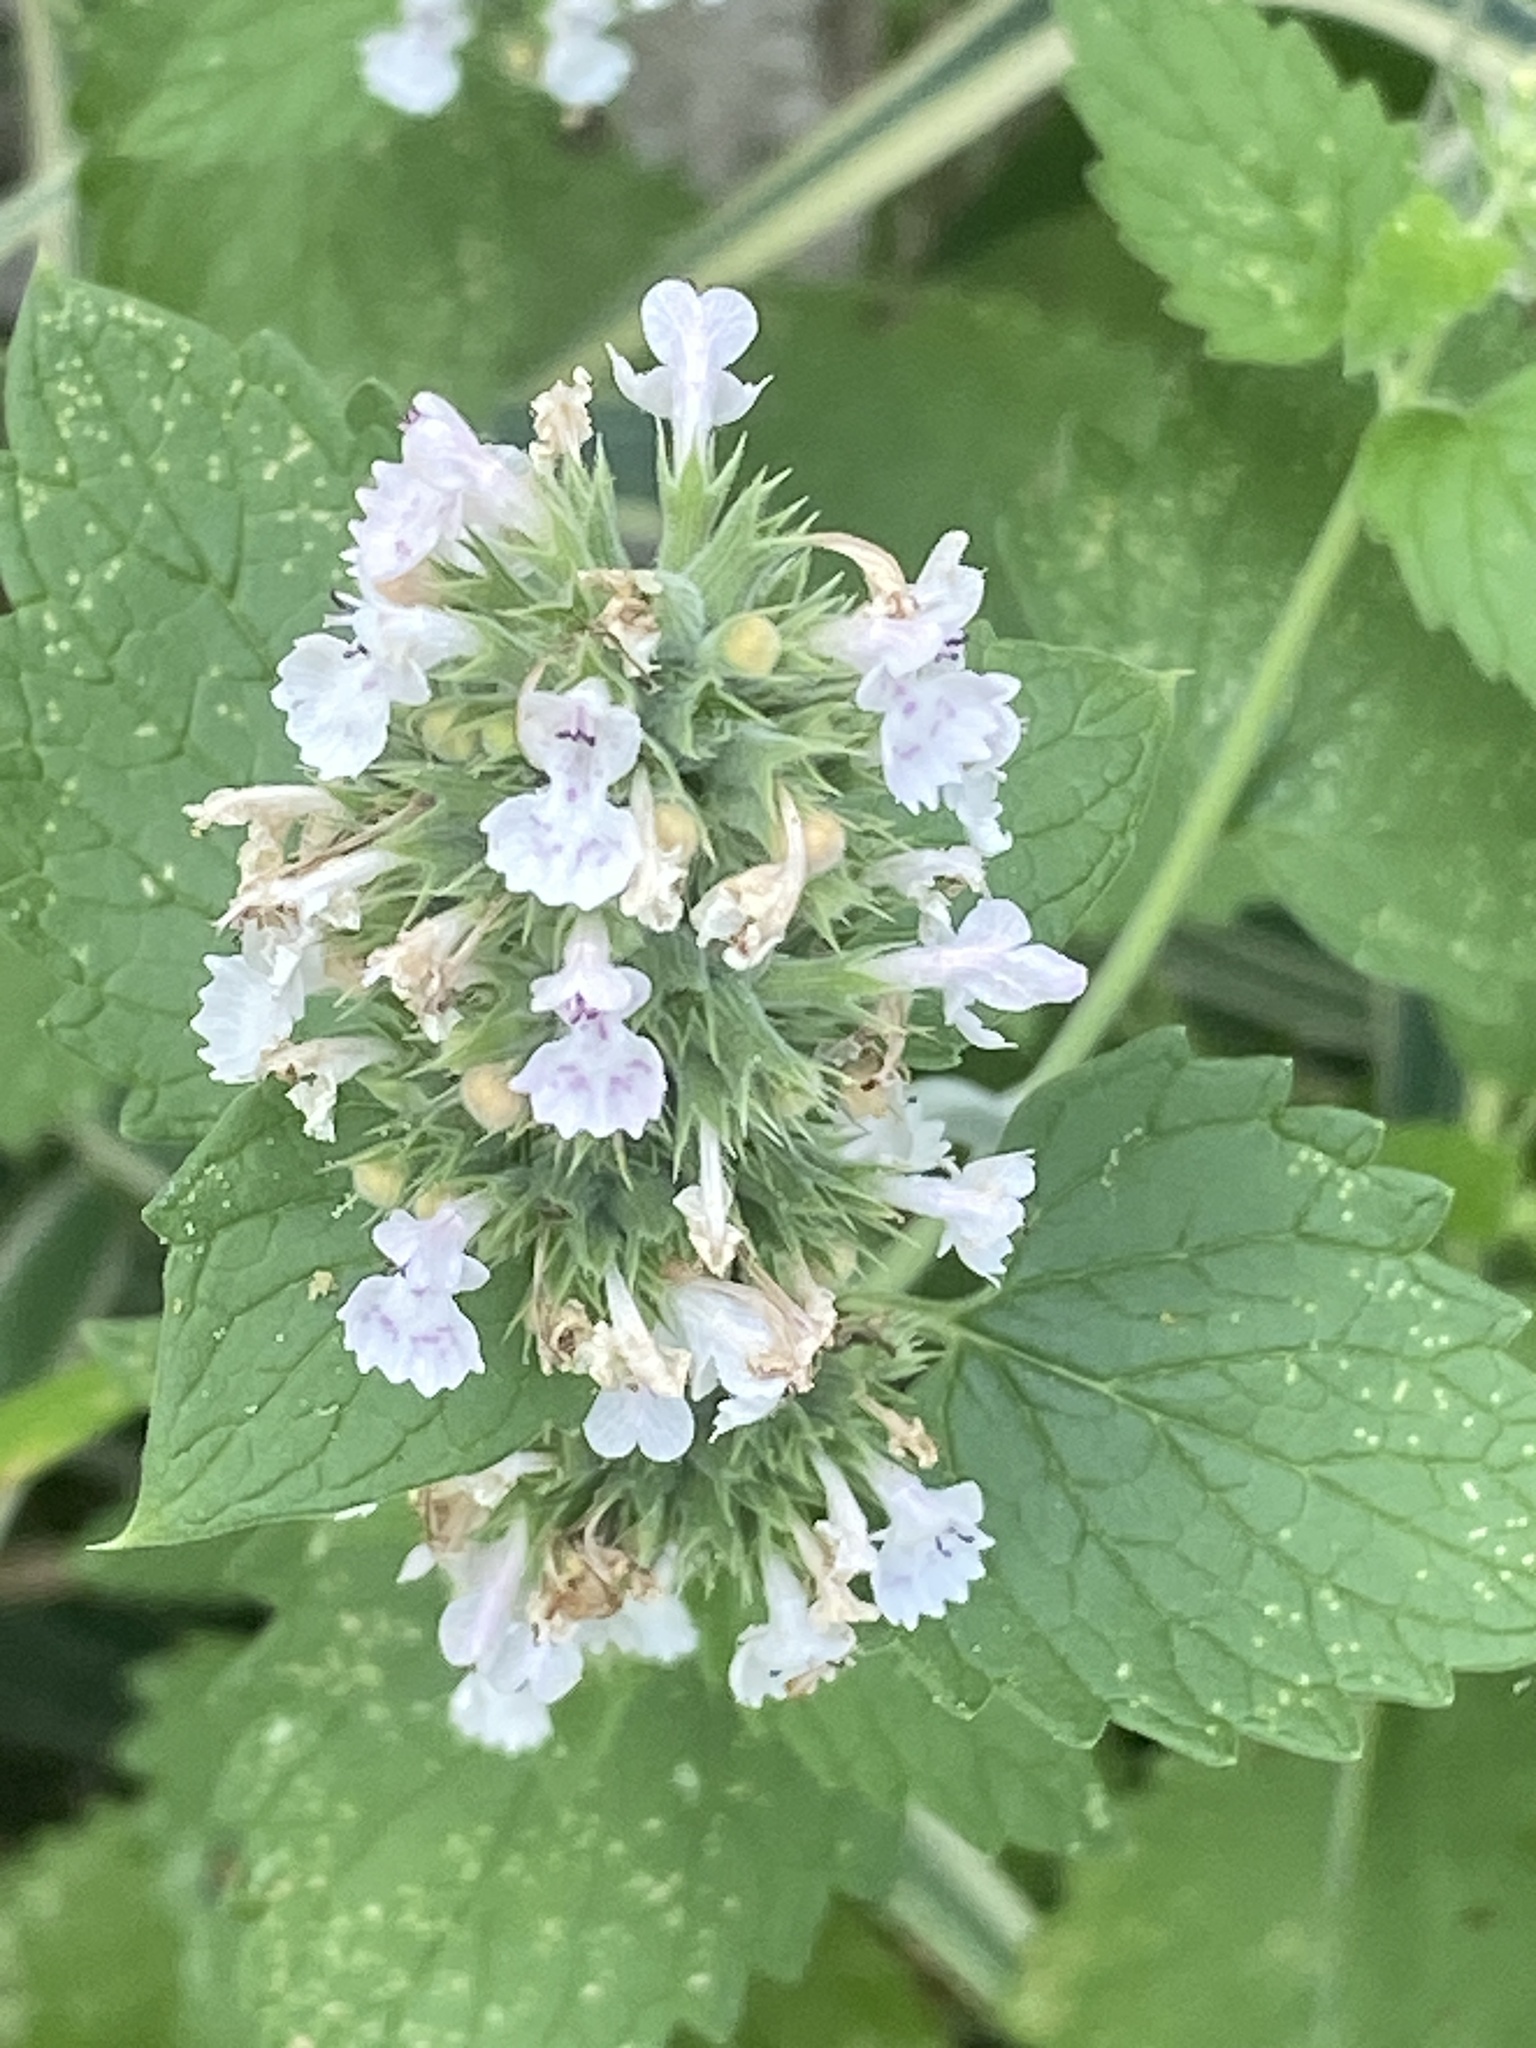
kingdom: Plantae
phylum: Tracheophyta
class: Magnoliopsida
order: Lamiales
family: Lamiaceae
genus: Nepeta
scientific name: Nepeta cataria
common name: Catnip
